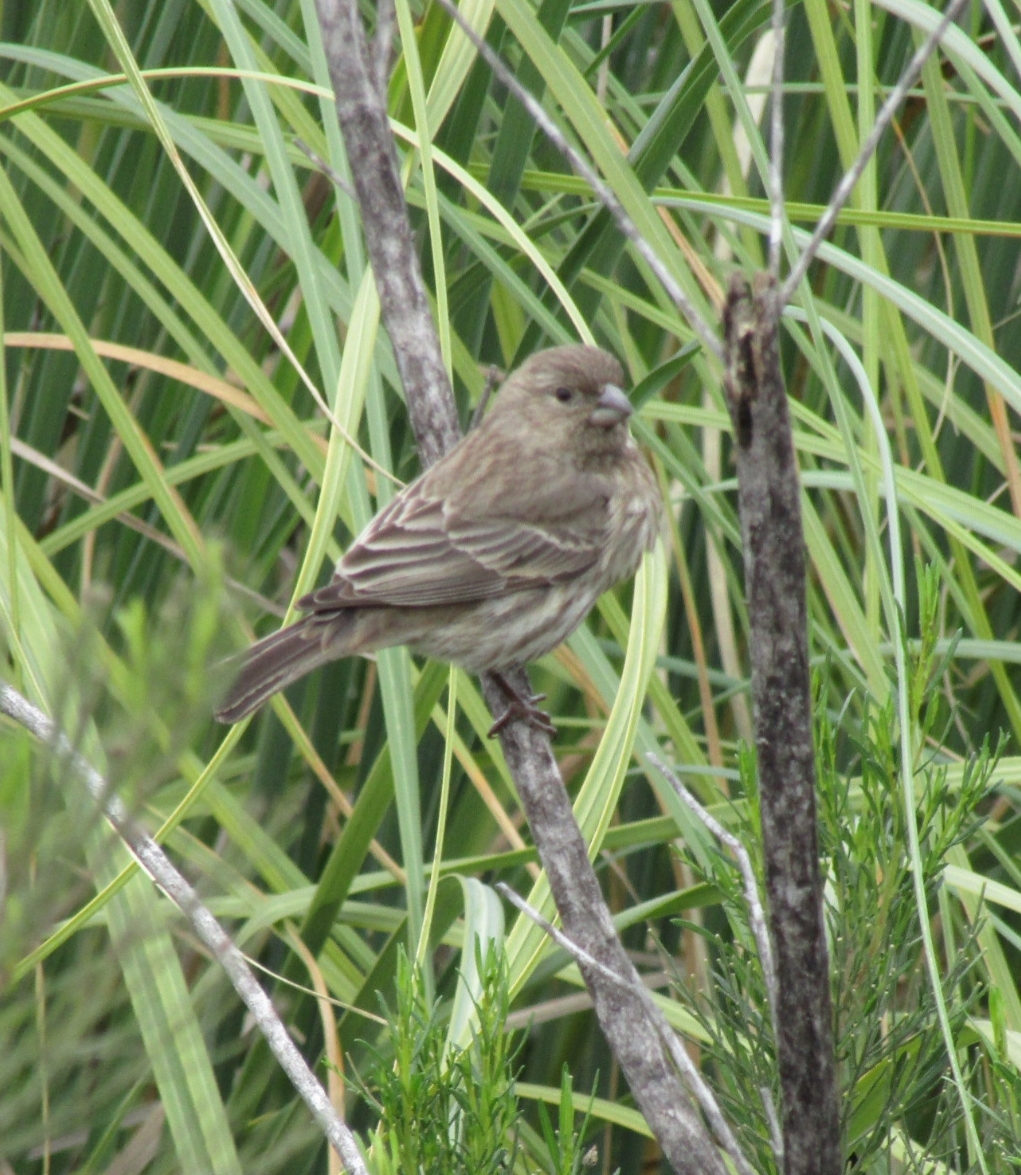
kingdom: Animalia
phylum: Chordata
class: Aves
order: Passeriformes
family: Fringillidae
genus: Haemorhous
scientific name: Haemorhous mexicanus
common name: House finch
